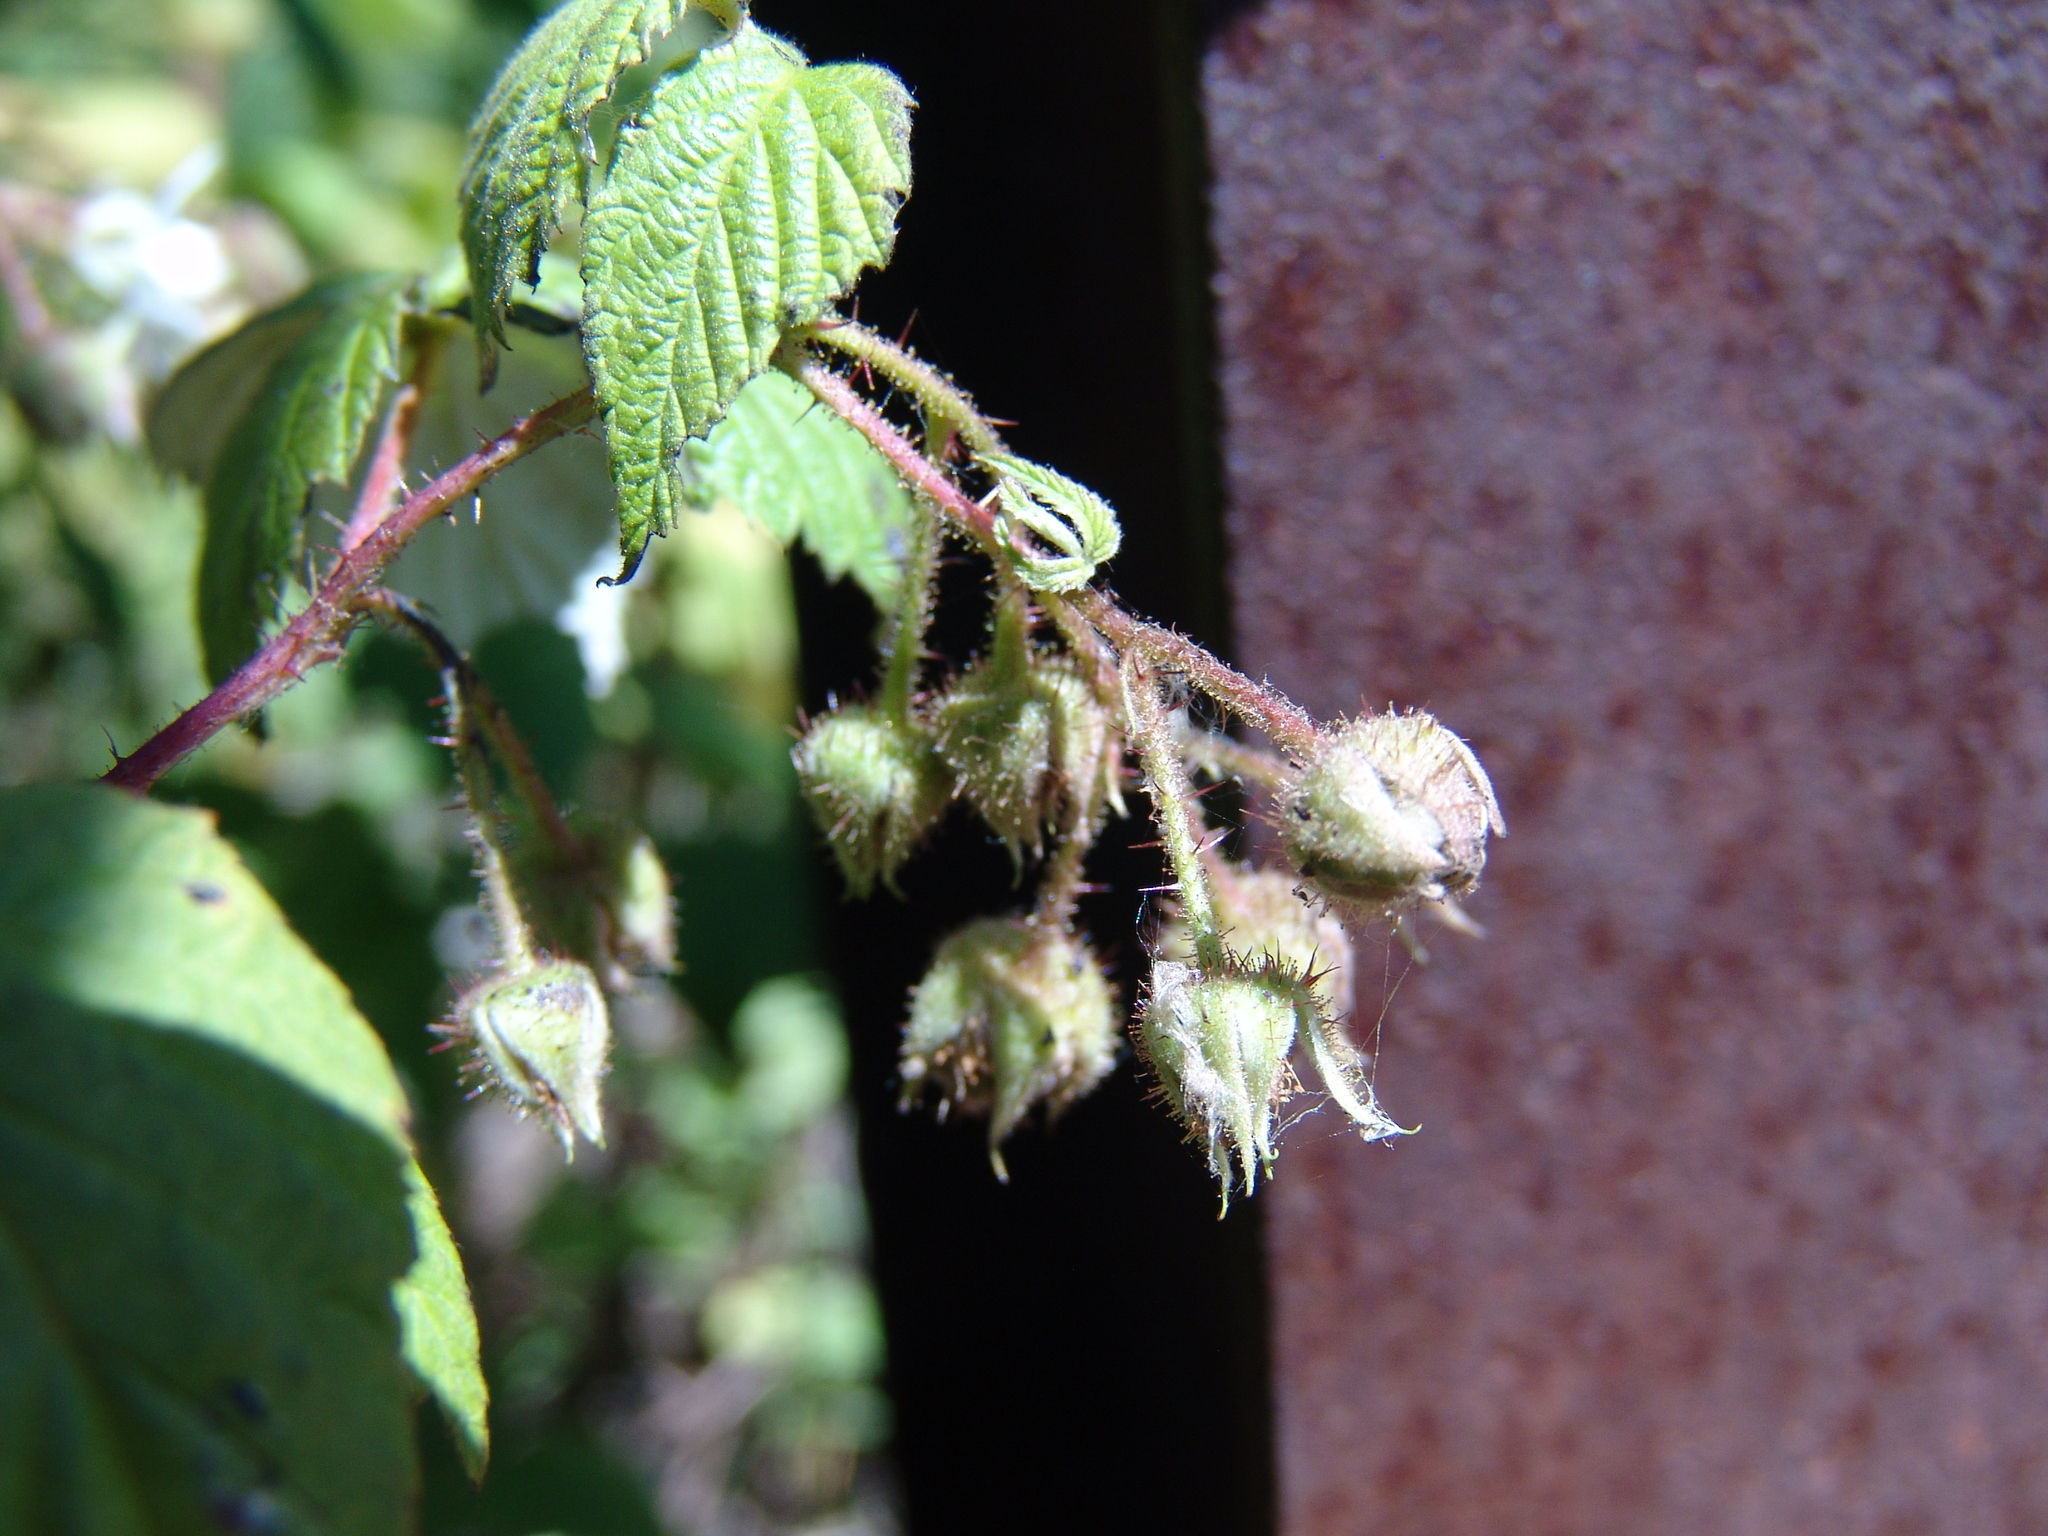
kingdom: Plantae
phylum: Tracheophyta
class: Magnoliopsida
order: Rosales
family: Rosaceae
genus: Rubus
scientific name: Rubus sachalinensis
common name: Red raspberry
